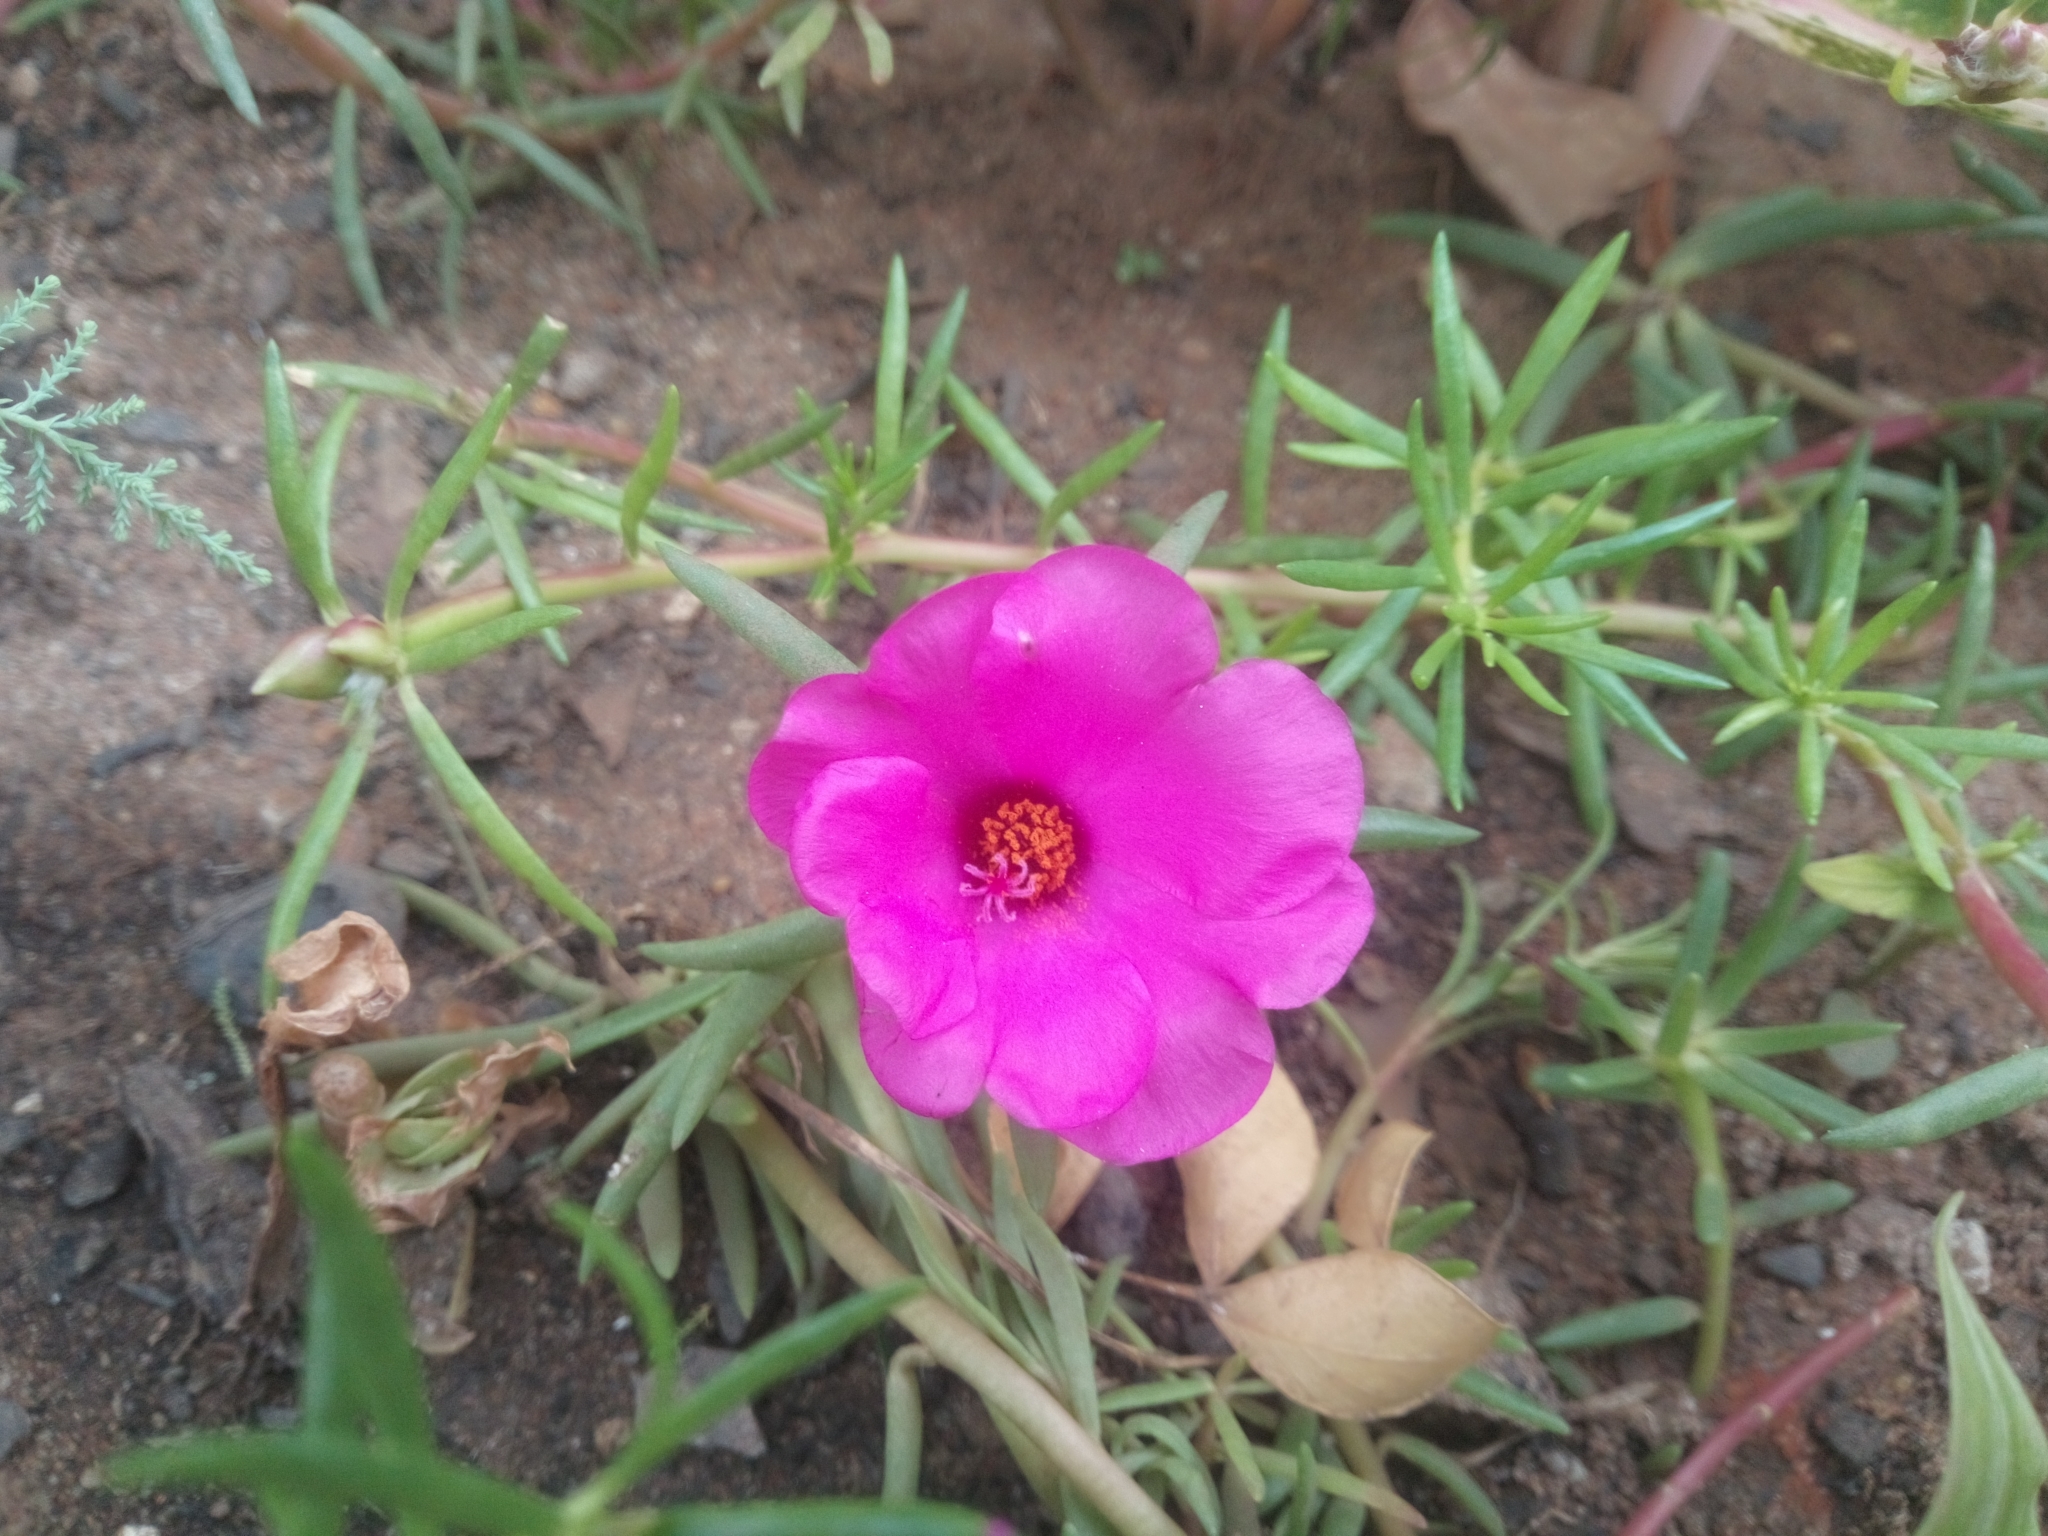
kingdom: Plantae
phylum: Tracheophyta
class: Magnoliopsida
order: Caryophyllales
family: Portulacaceae
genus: Portulaca
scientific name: Portulaca grandiflora
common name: Moss-rose
